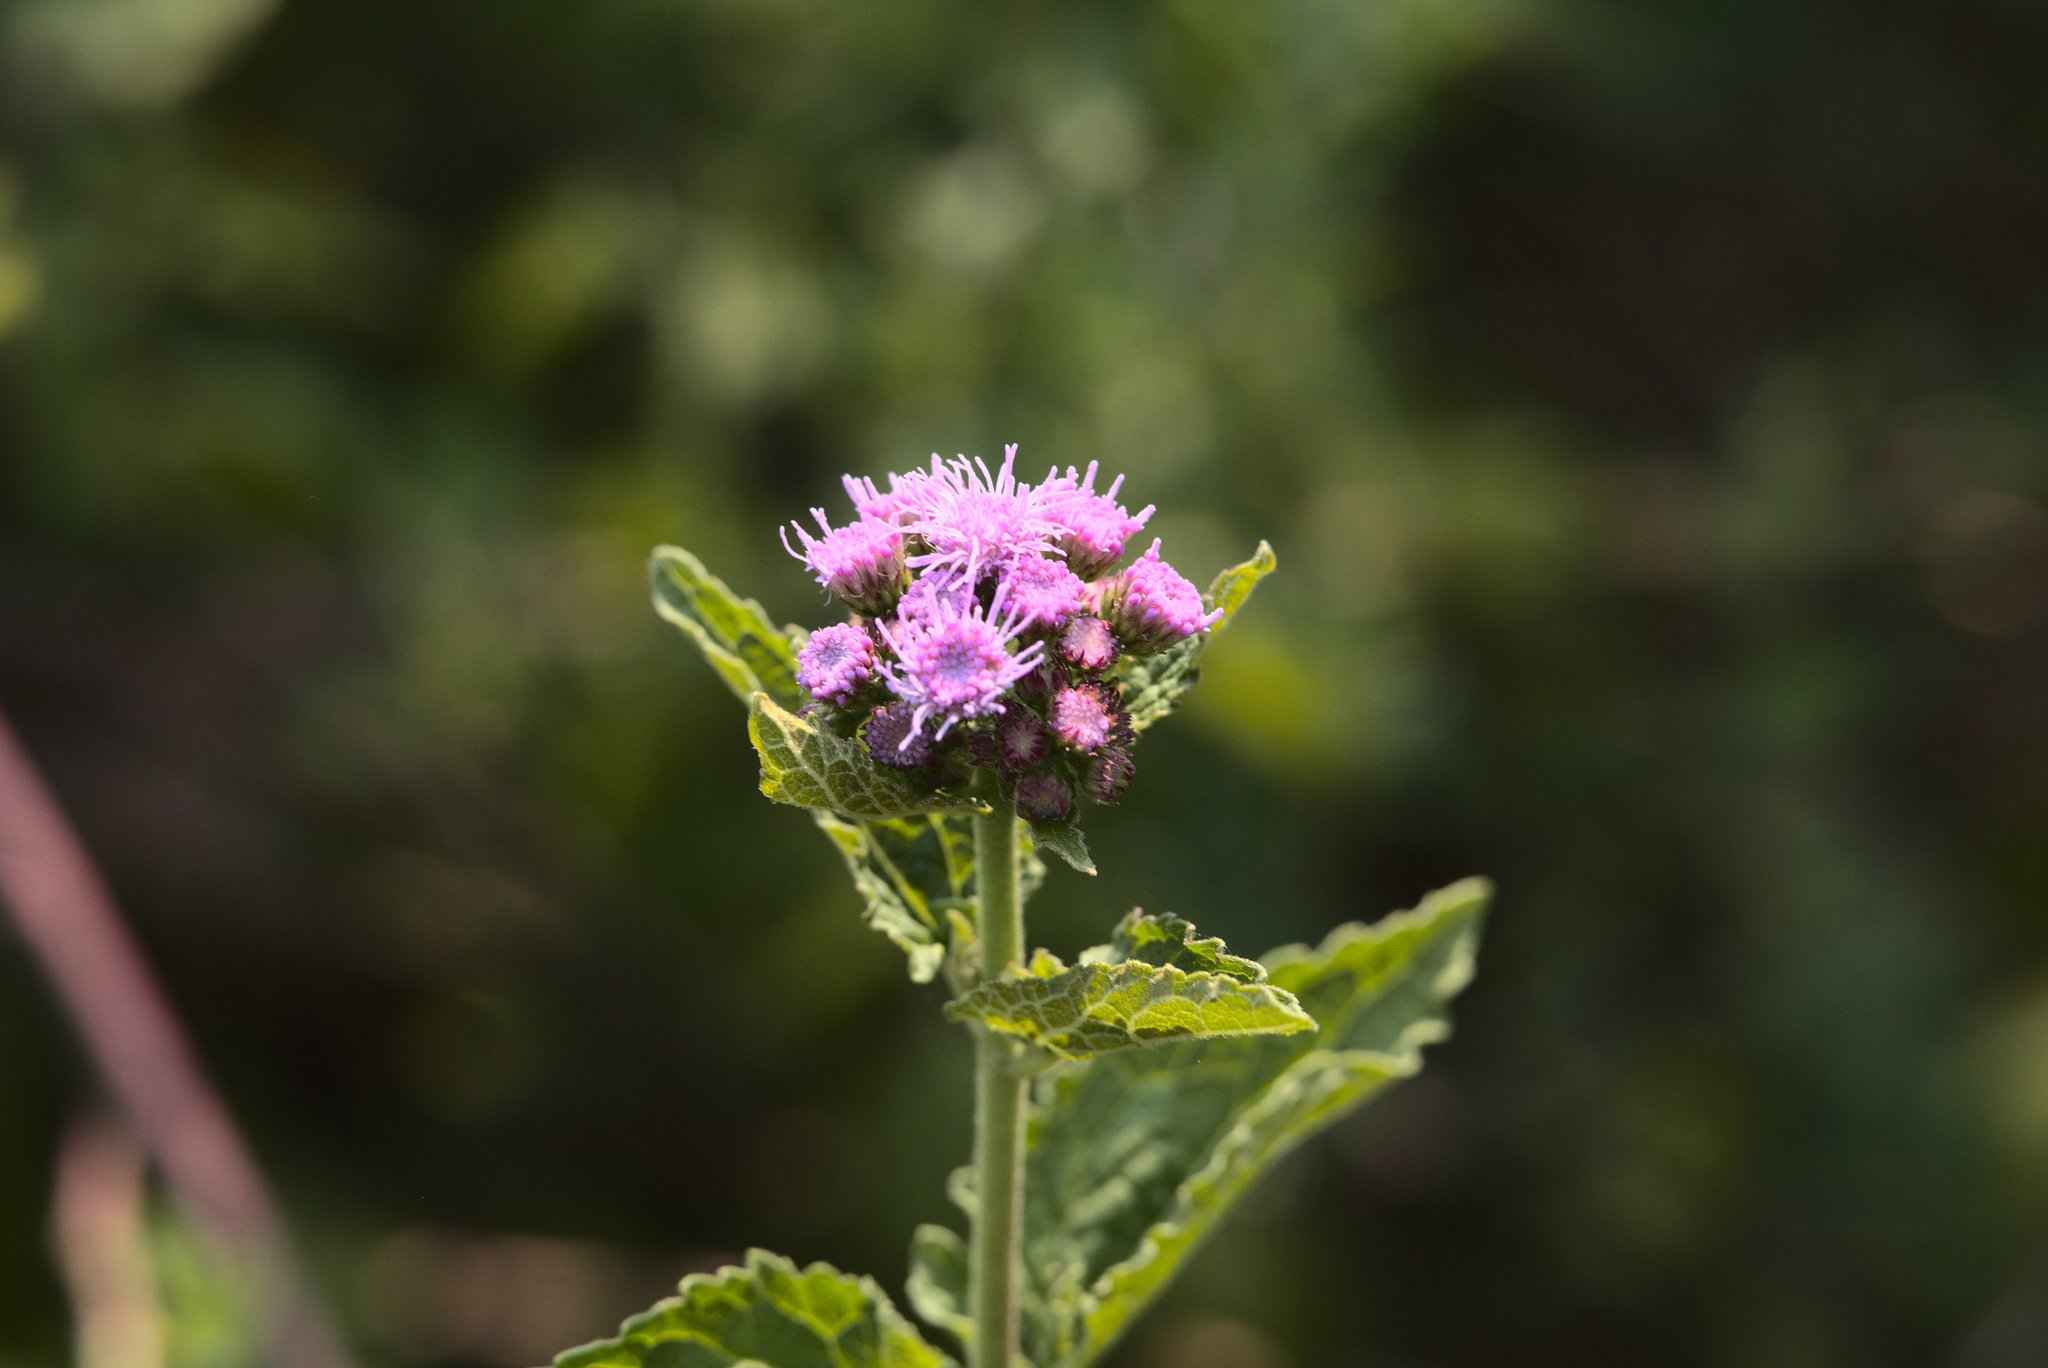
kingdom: Plantae
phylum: Tracheophyta
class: Magnoliopsida
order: Asterales
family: Asteraceae
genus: Conoclinium
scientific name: Conoclinium coelestinum
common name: Blue mistflower
